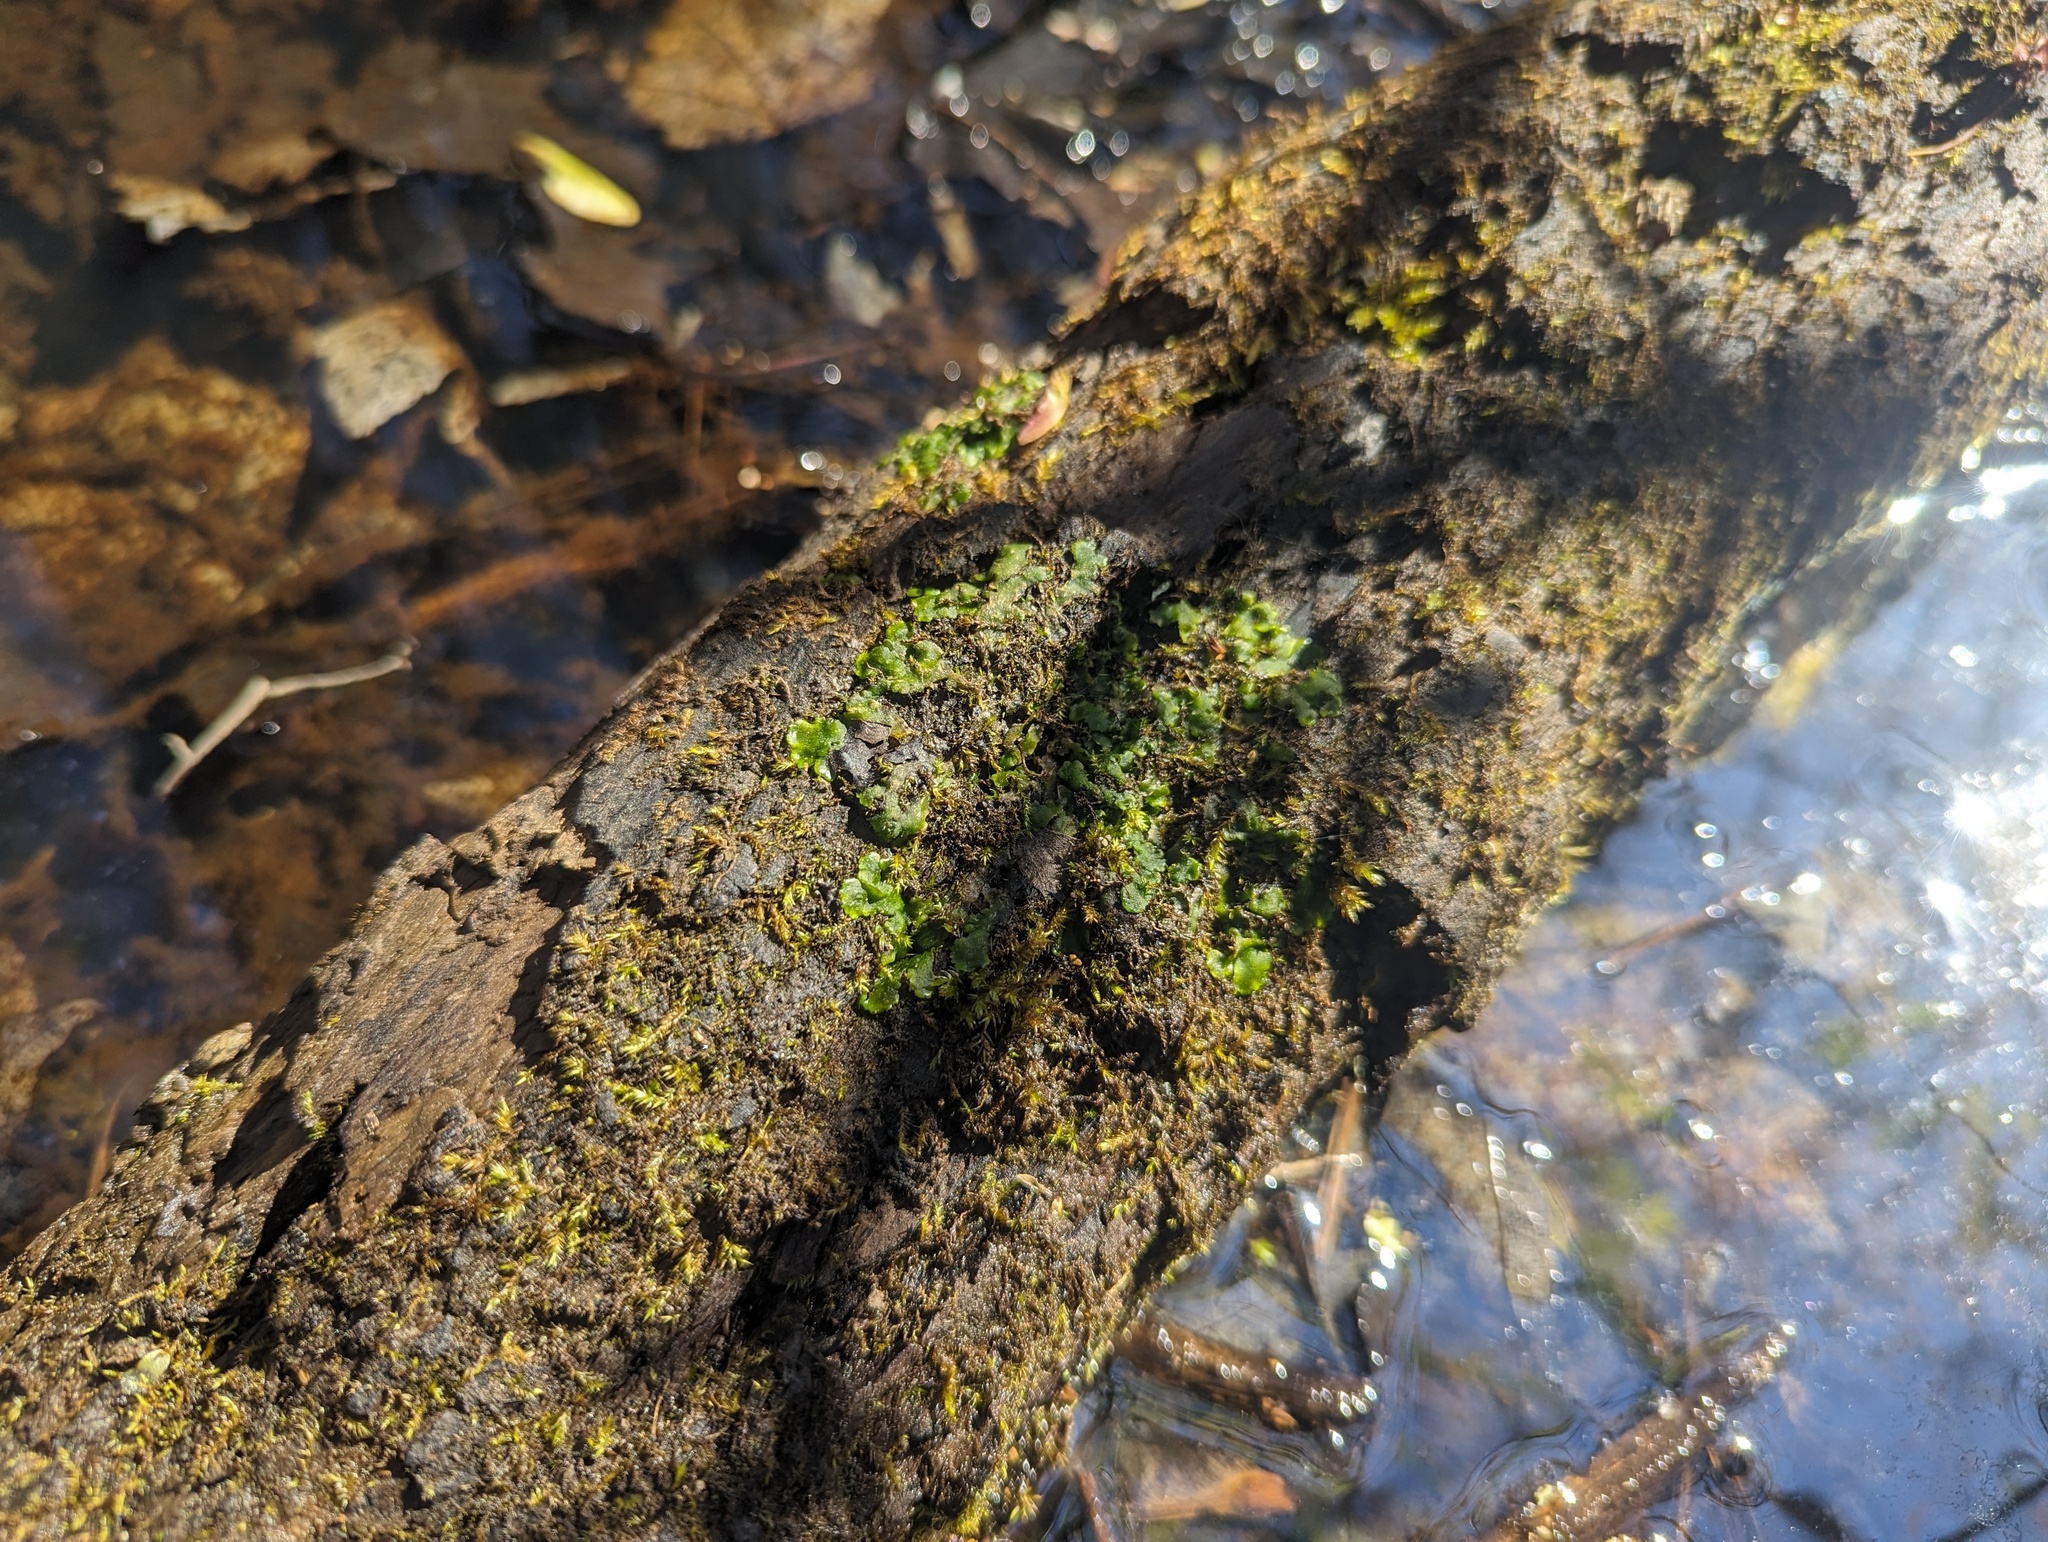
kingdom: Plantae
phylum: Marchantiophyta
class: Jungermanniopsida
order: Metzgeriales
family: Aneuraceae
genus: Aneura
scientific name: Aneura pinguis
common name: Common greasewort
